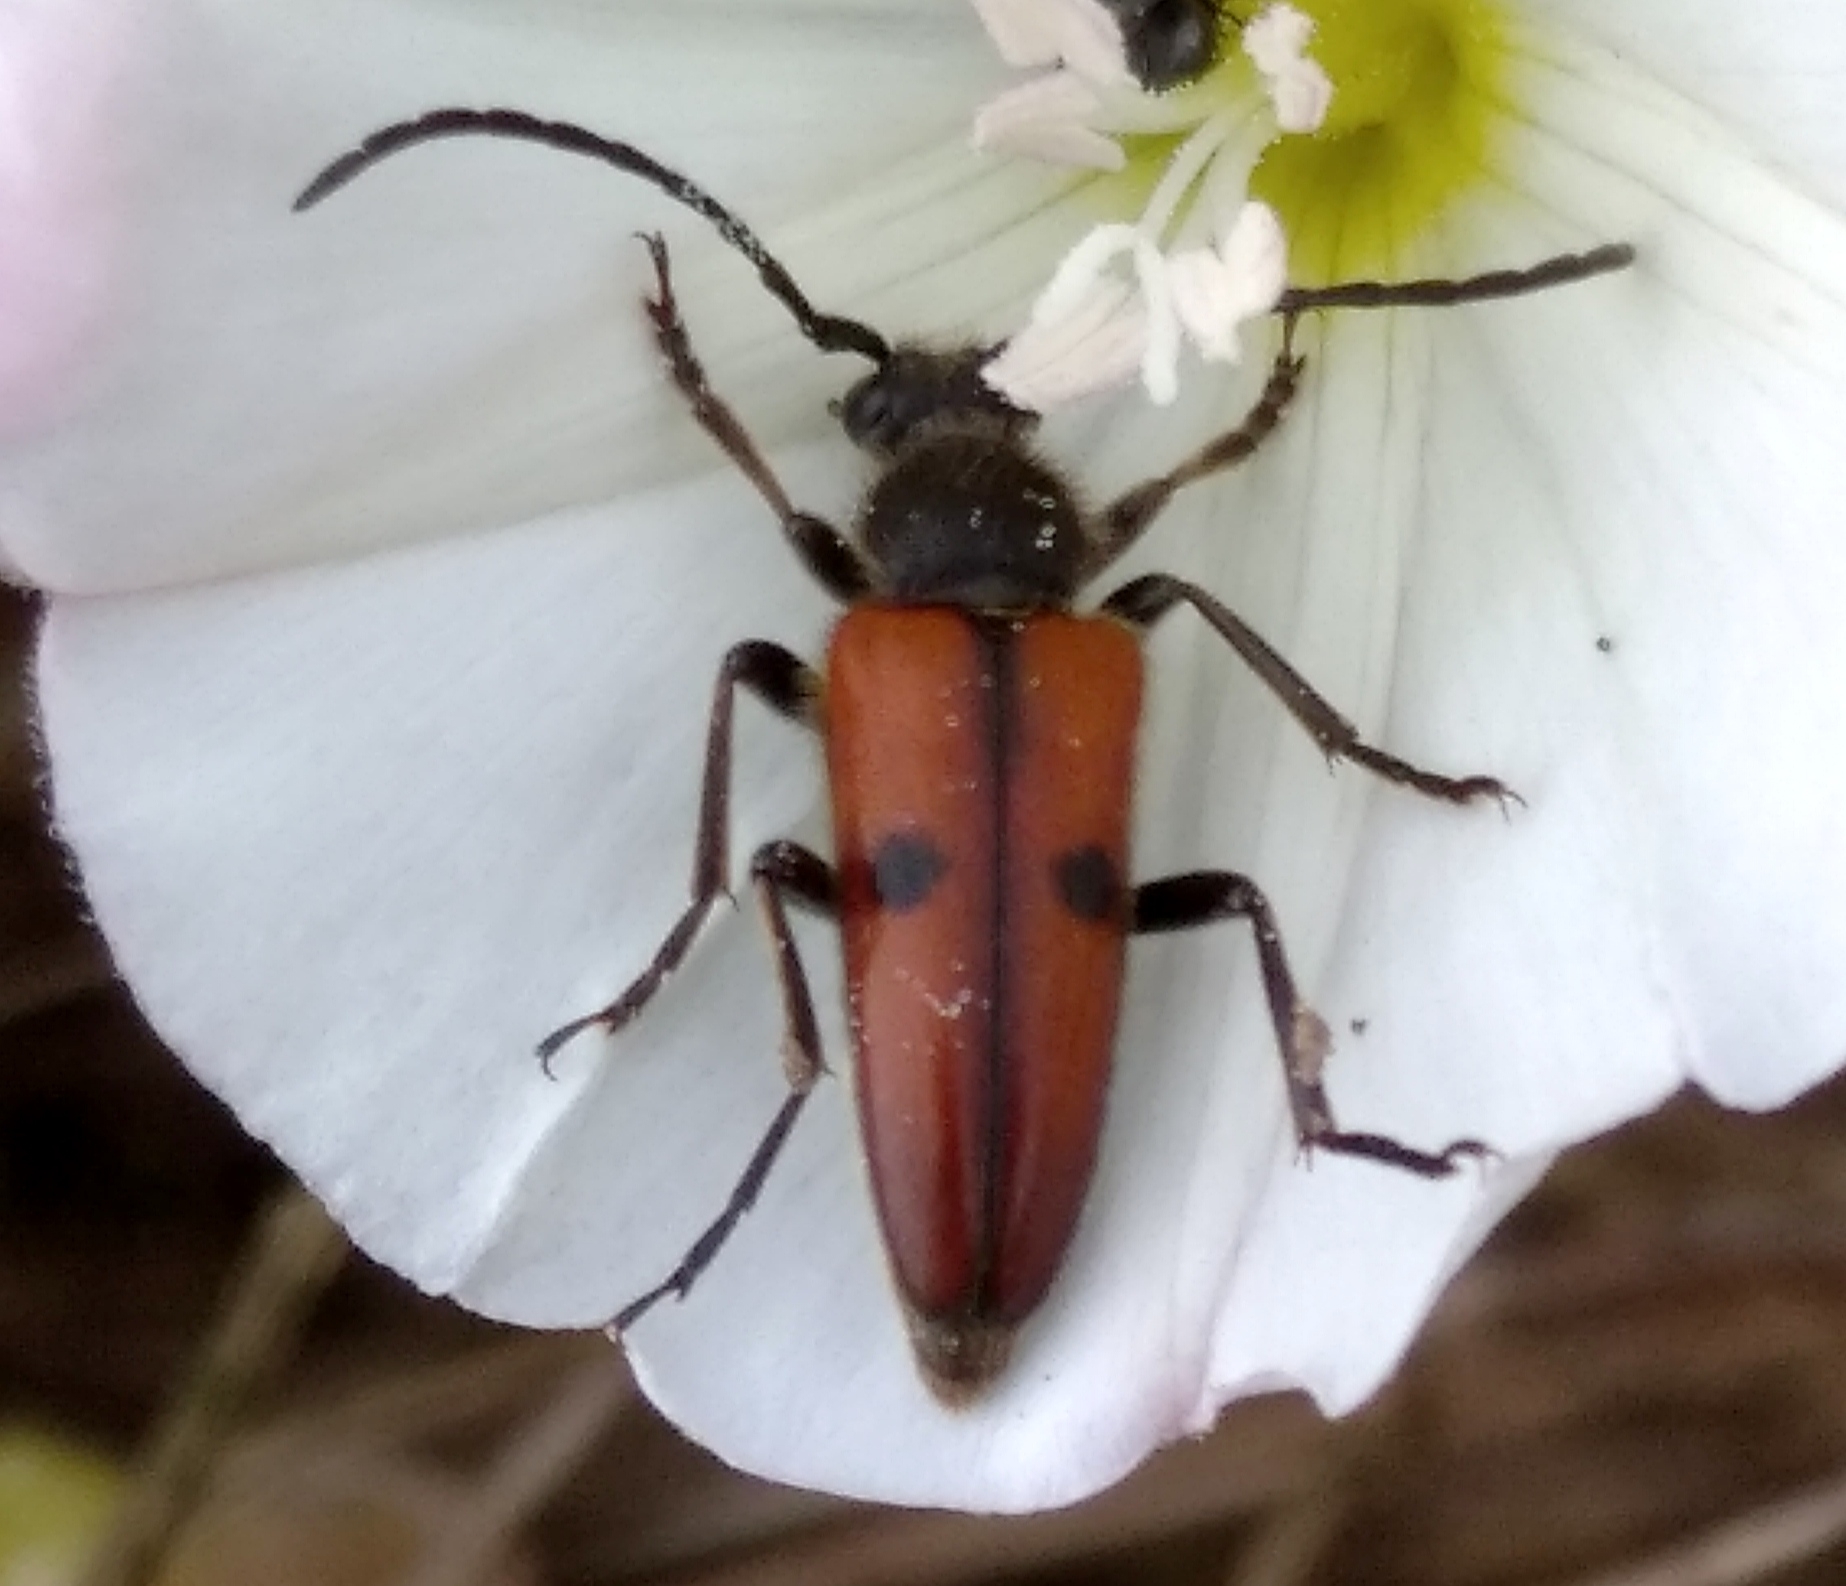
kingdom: Animalia
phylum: Arthropoda
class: Insecta
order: Coleoptera
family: Cerambycidae
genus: Vadonia
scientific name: Vadonia unipunctata
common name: Long-horned beetle
